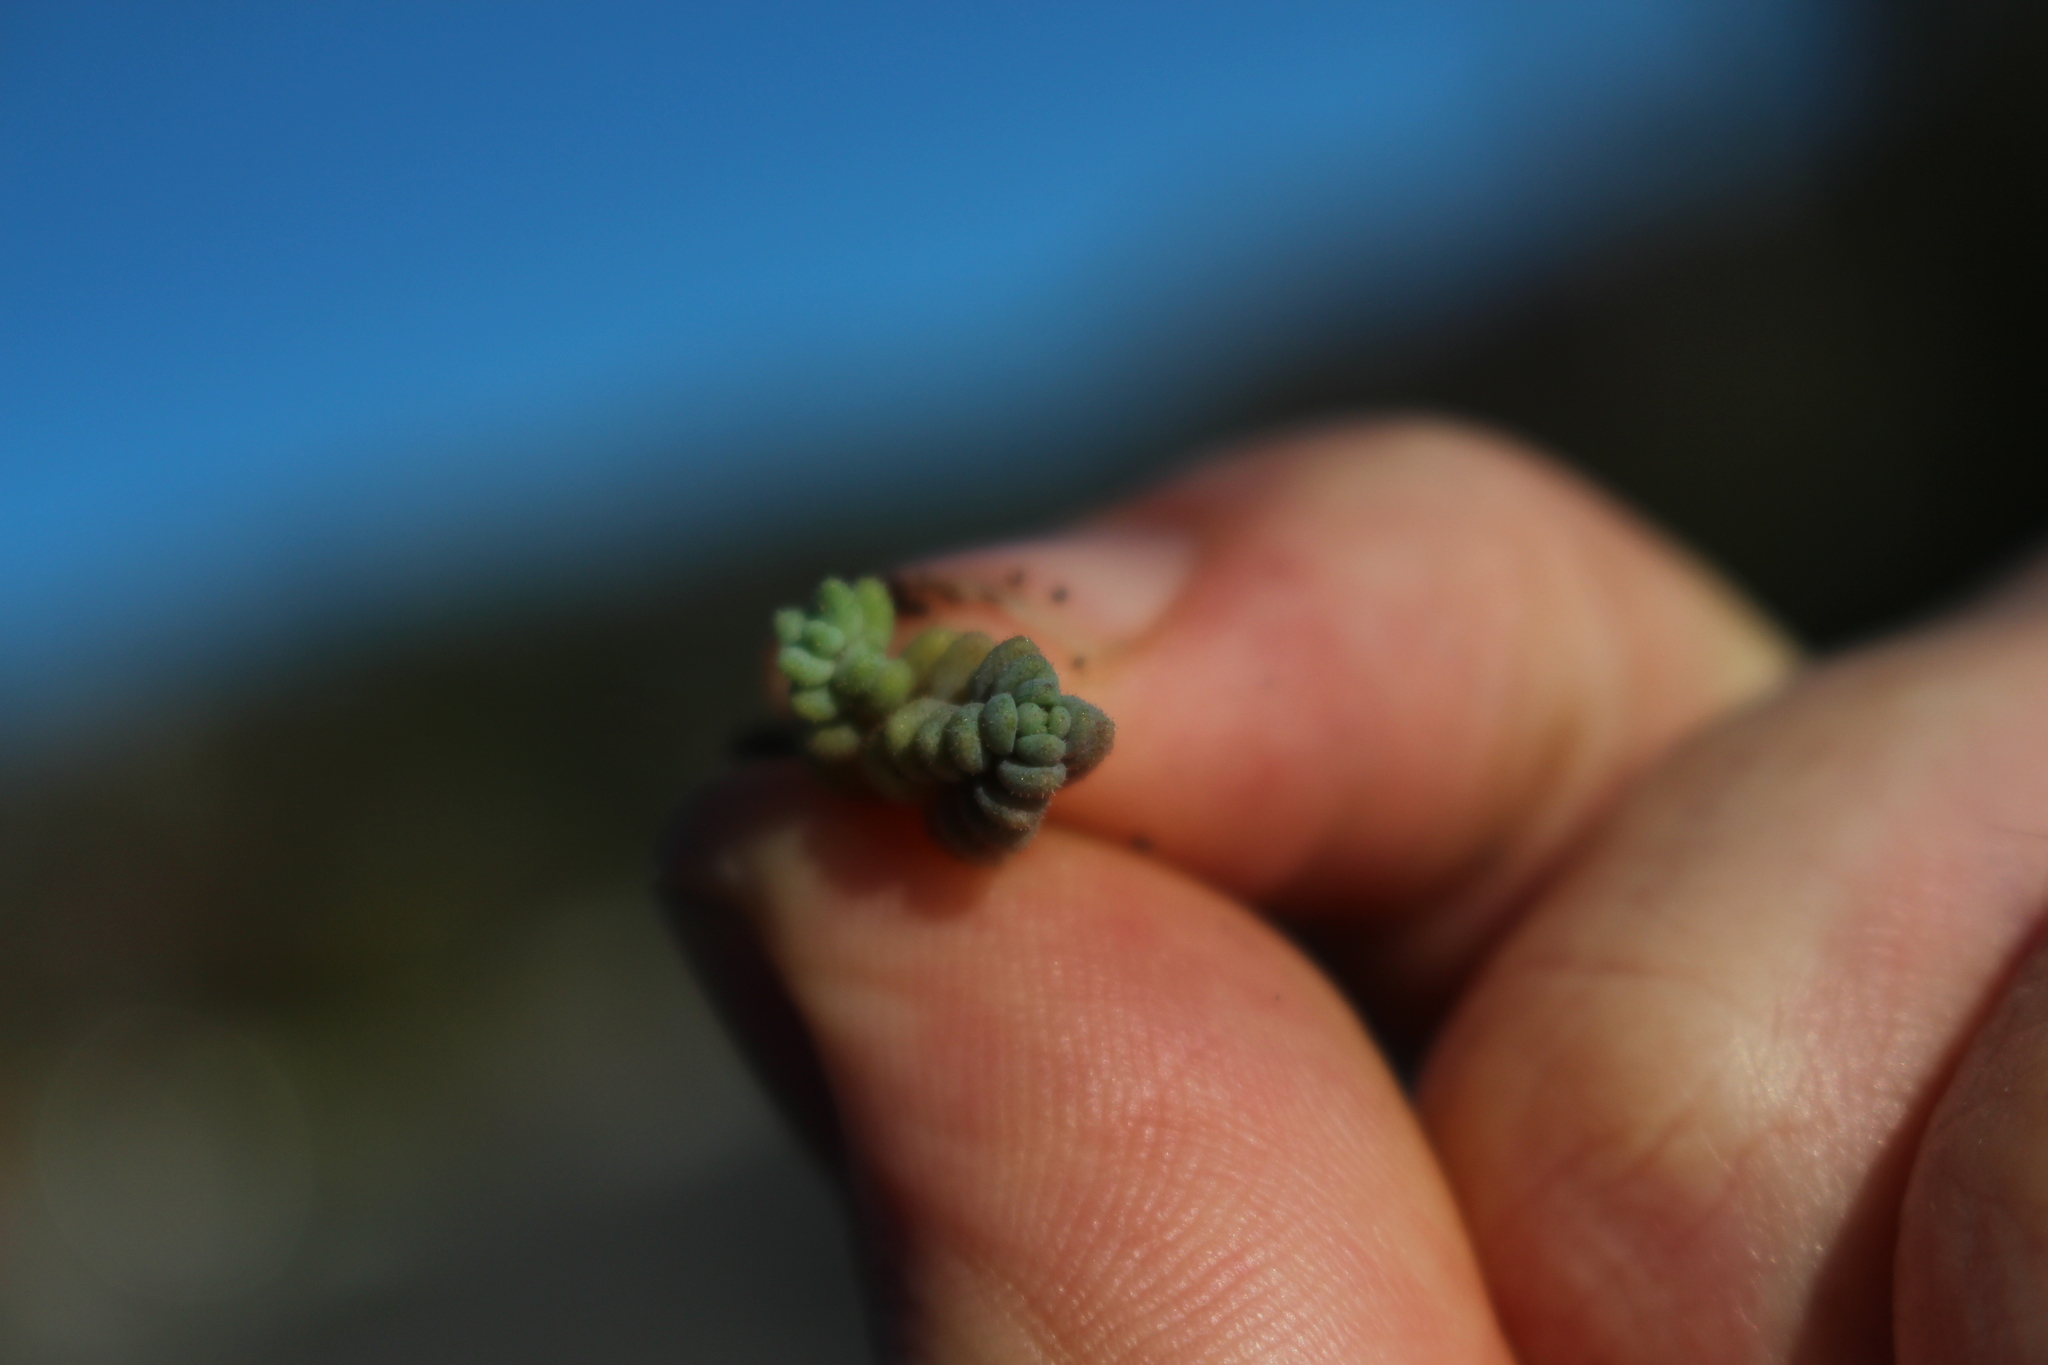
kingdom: Plantae
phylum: Tracheophyta
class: Magnoliopsida
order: Saxifragales
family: Crassulaceae
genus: Sedum
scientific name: Sedum dasyphyllum
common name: Thick-leaf stonecrop
